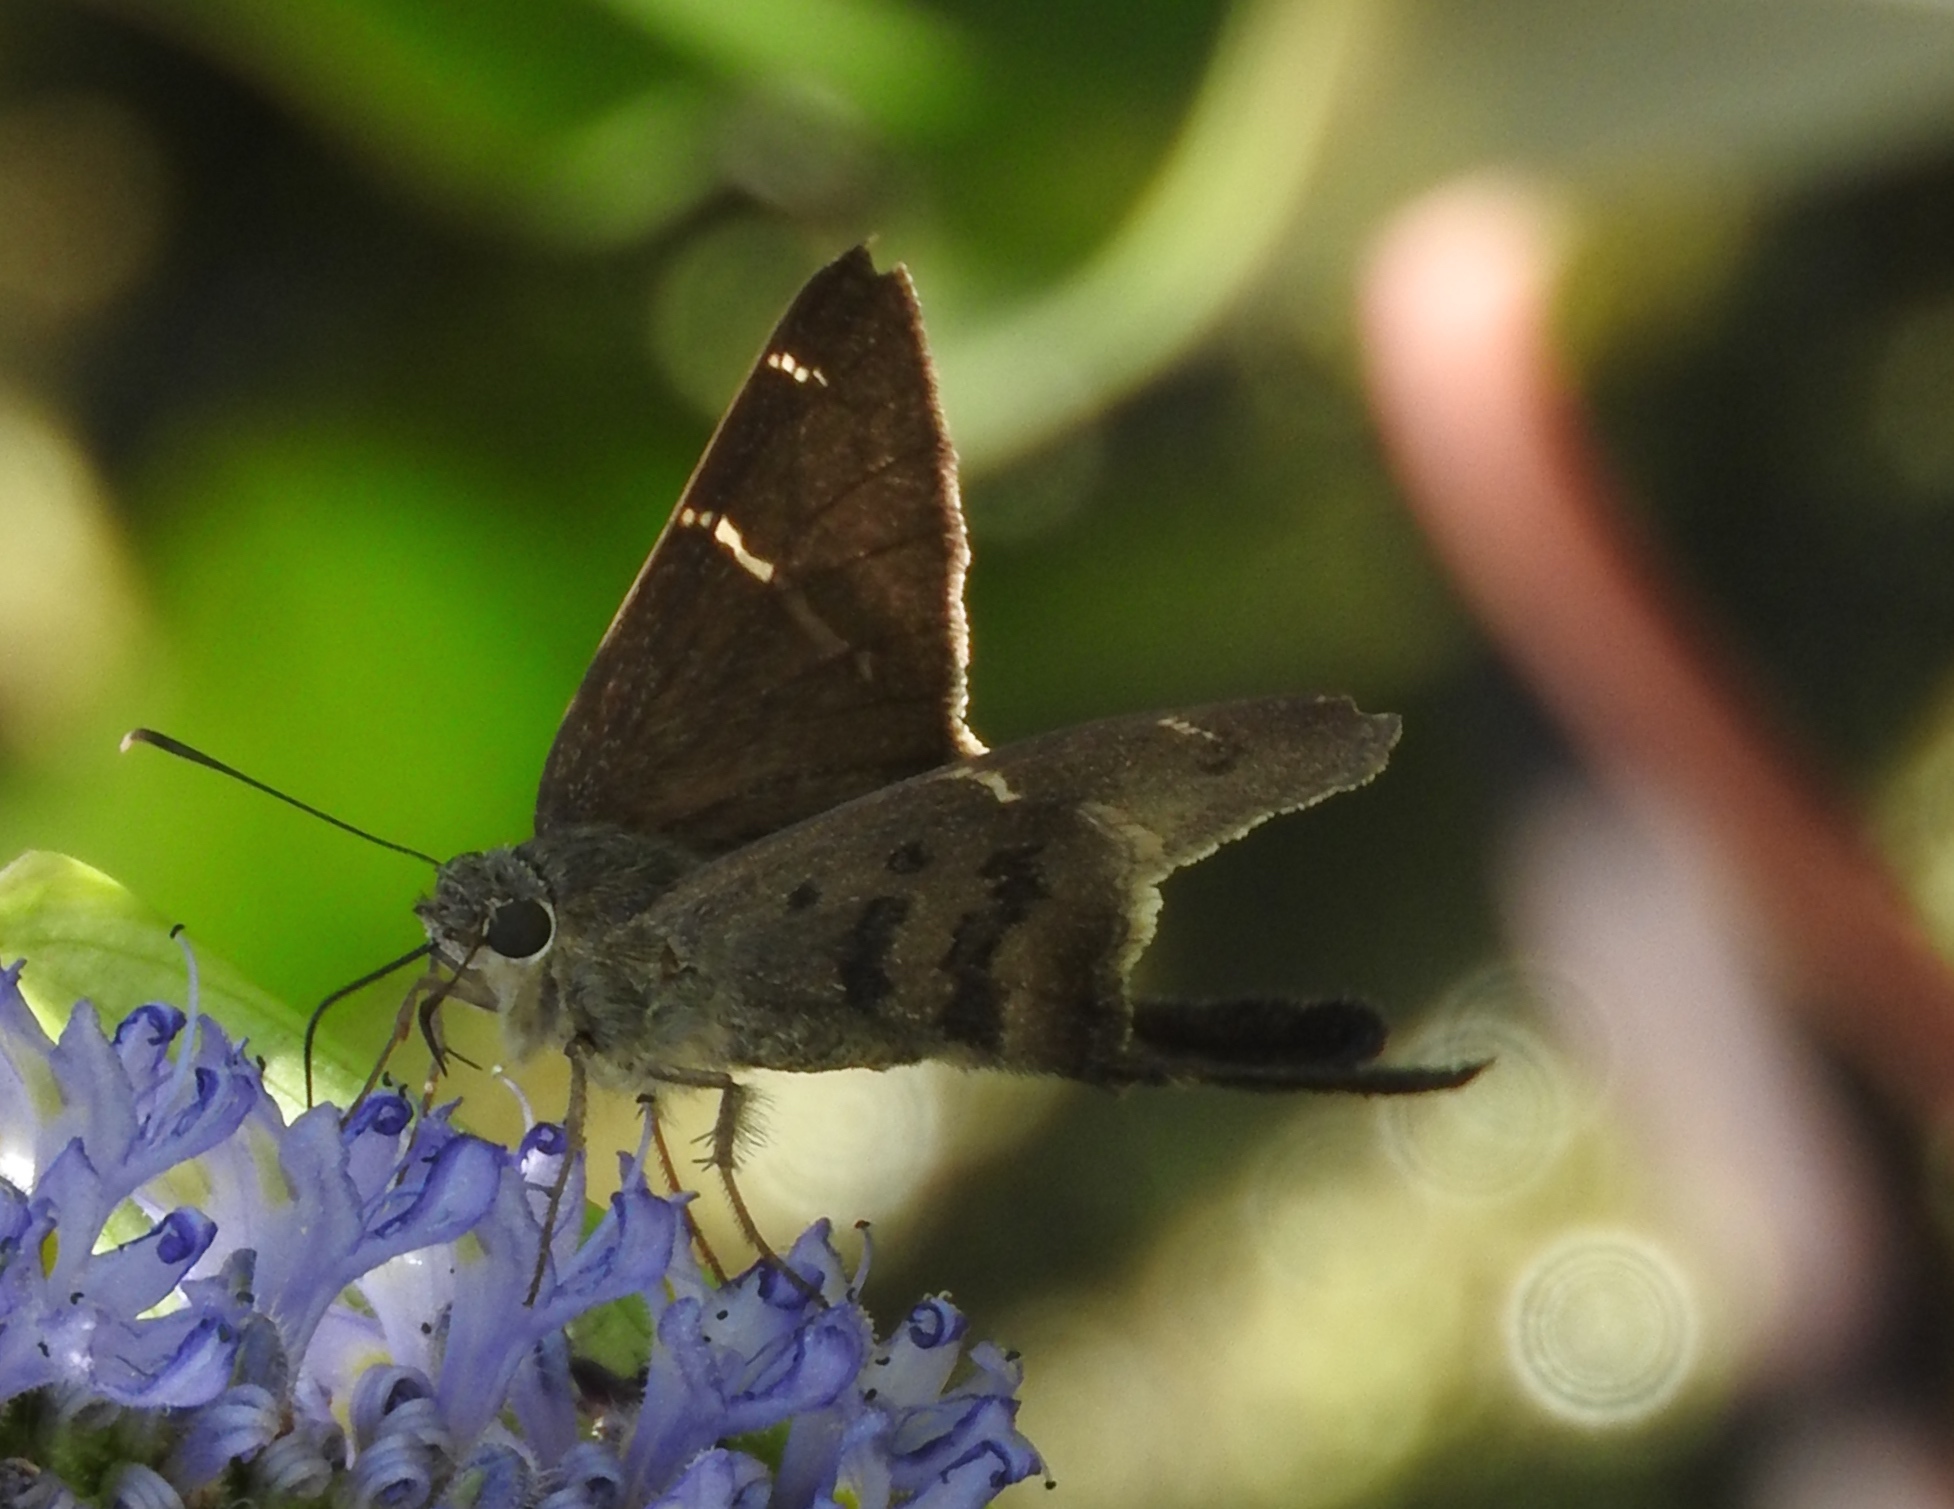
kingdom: Animalia
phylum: Arthropoda
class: Insecta
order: Lepidoptera
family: Hesperiidae
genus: Urbanus
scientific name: Urbanus teleus
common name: Teleus longtail
